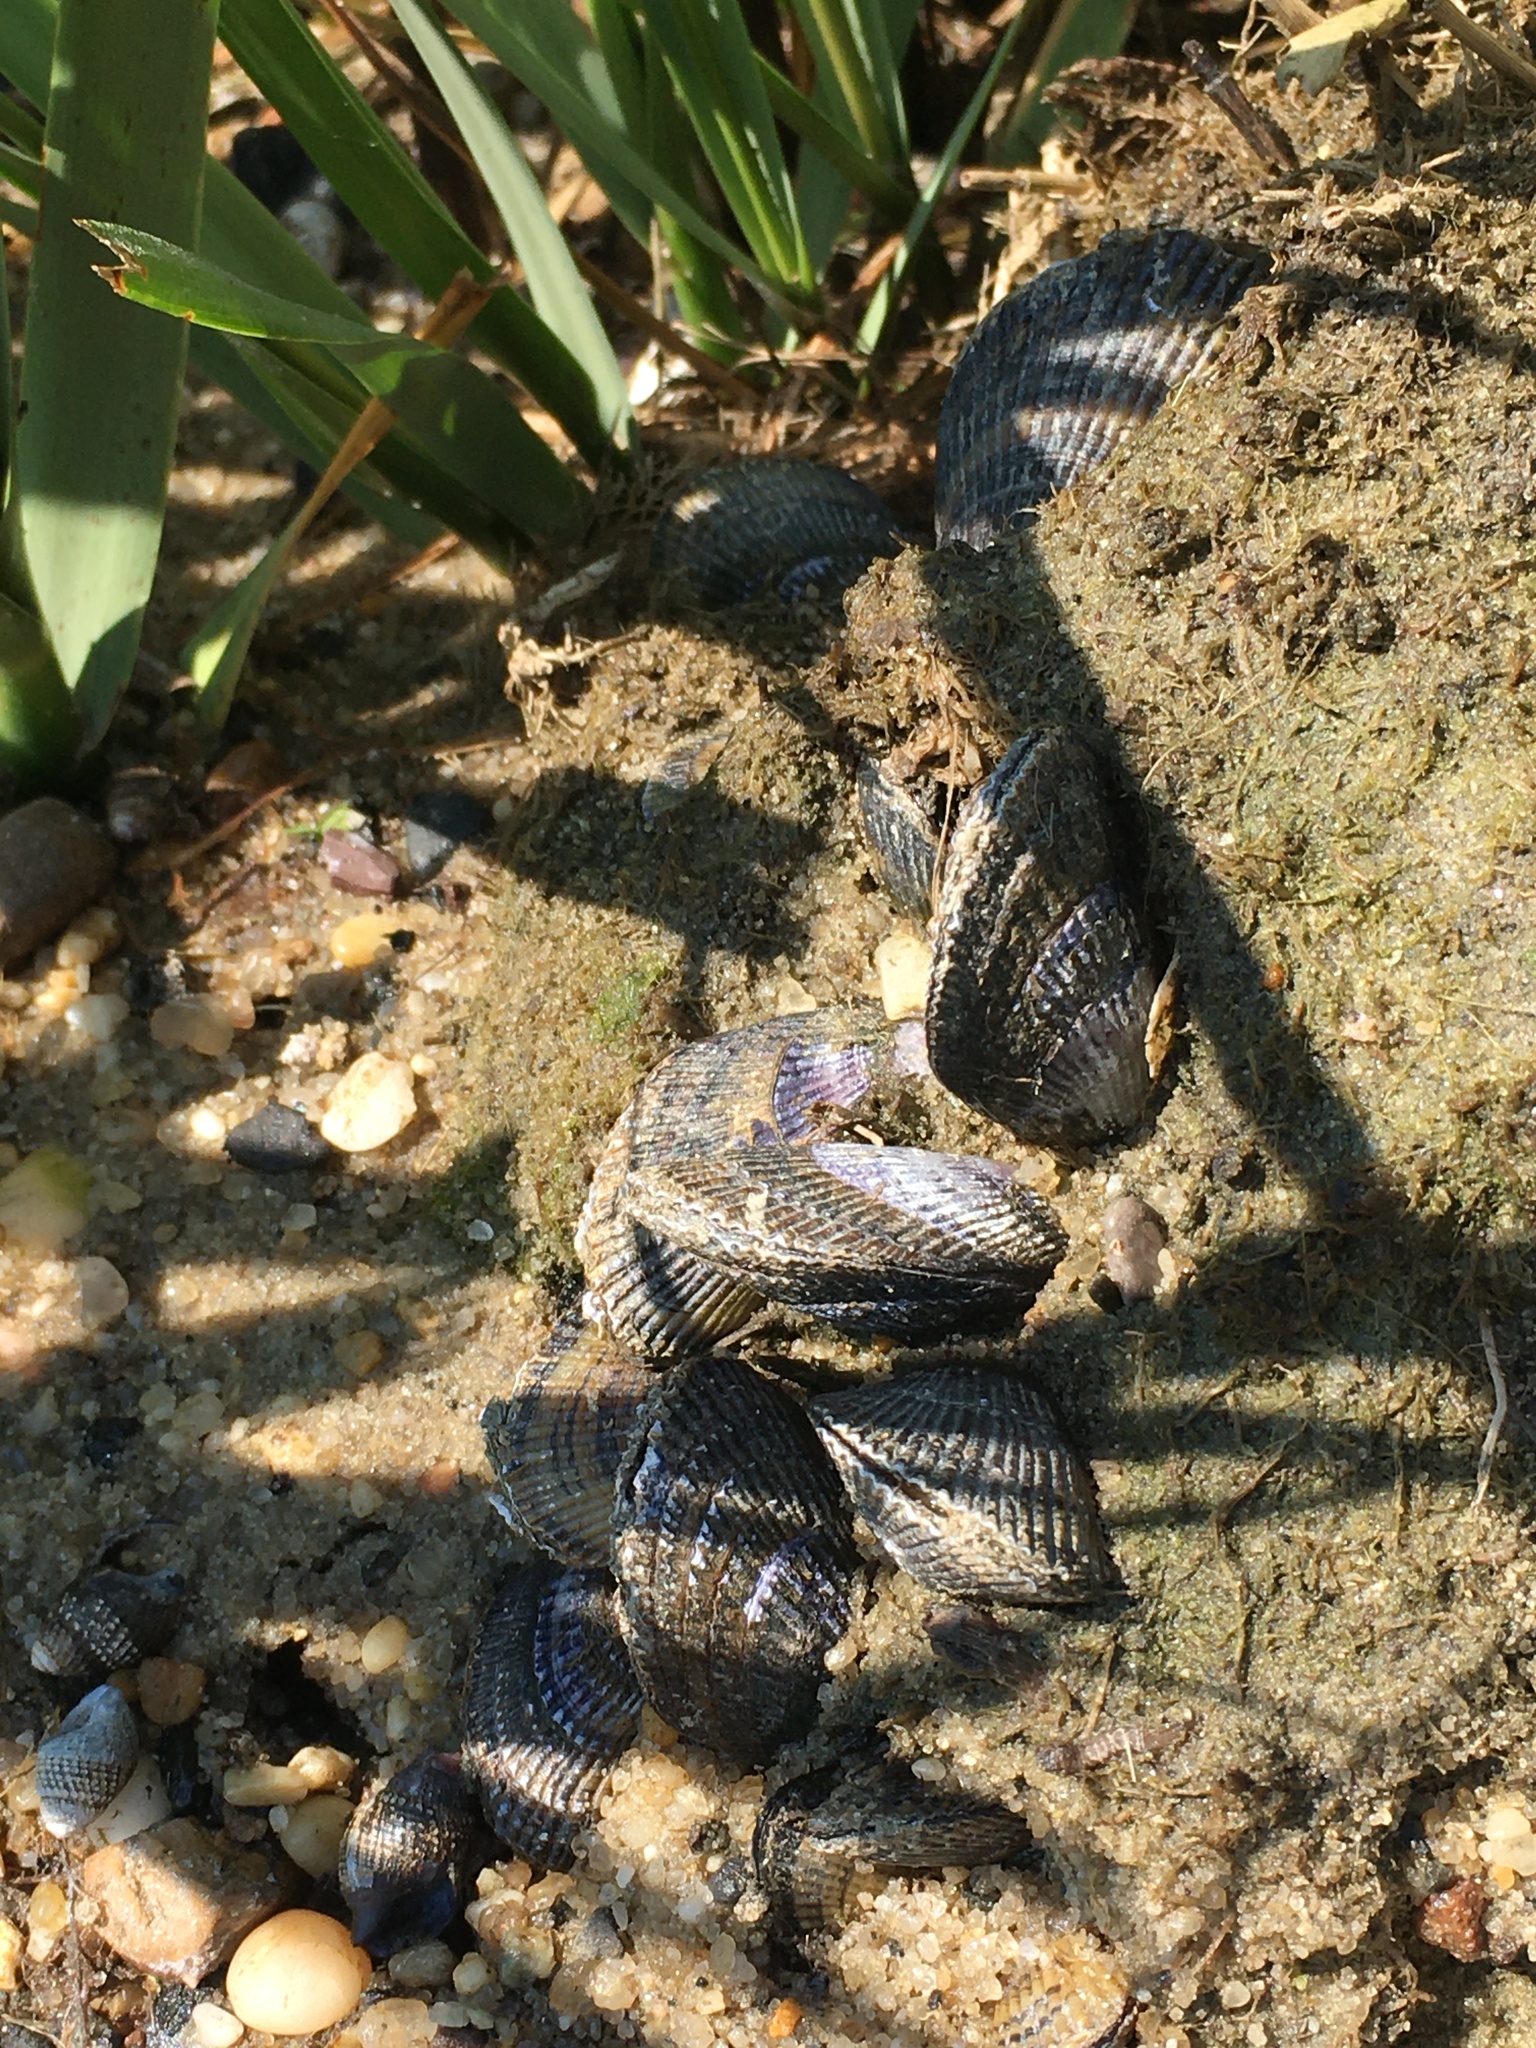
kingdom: Animalia
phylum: Mollusca
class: Bivalvia
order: Mytilida
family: Mytilidae
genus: Geukensia
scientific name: Geukensia demissa
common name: Ribbed mussel
